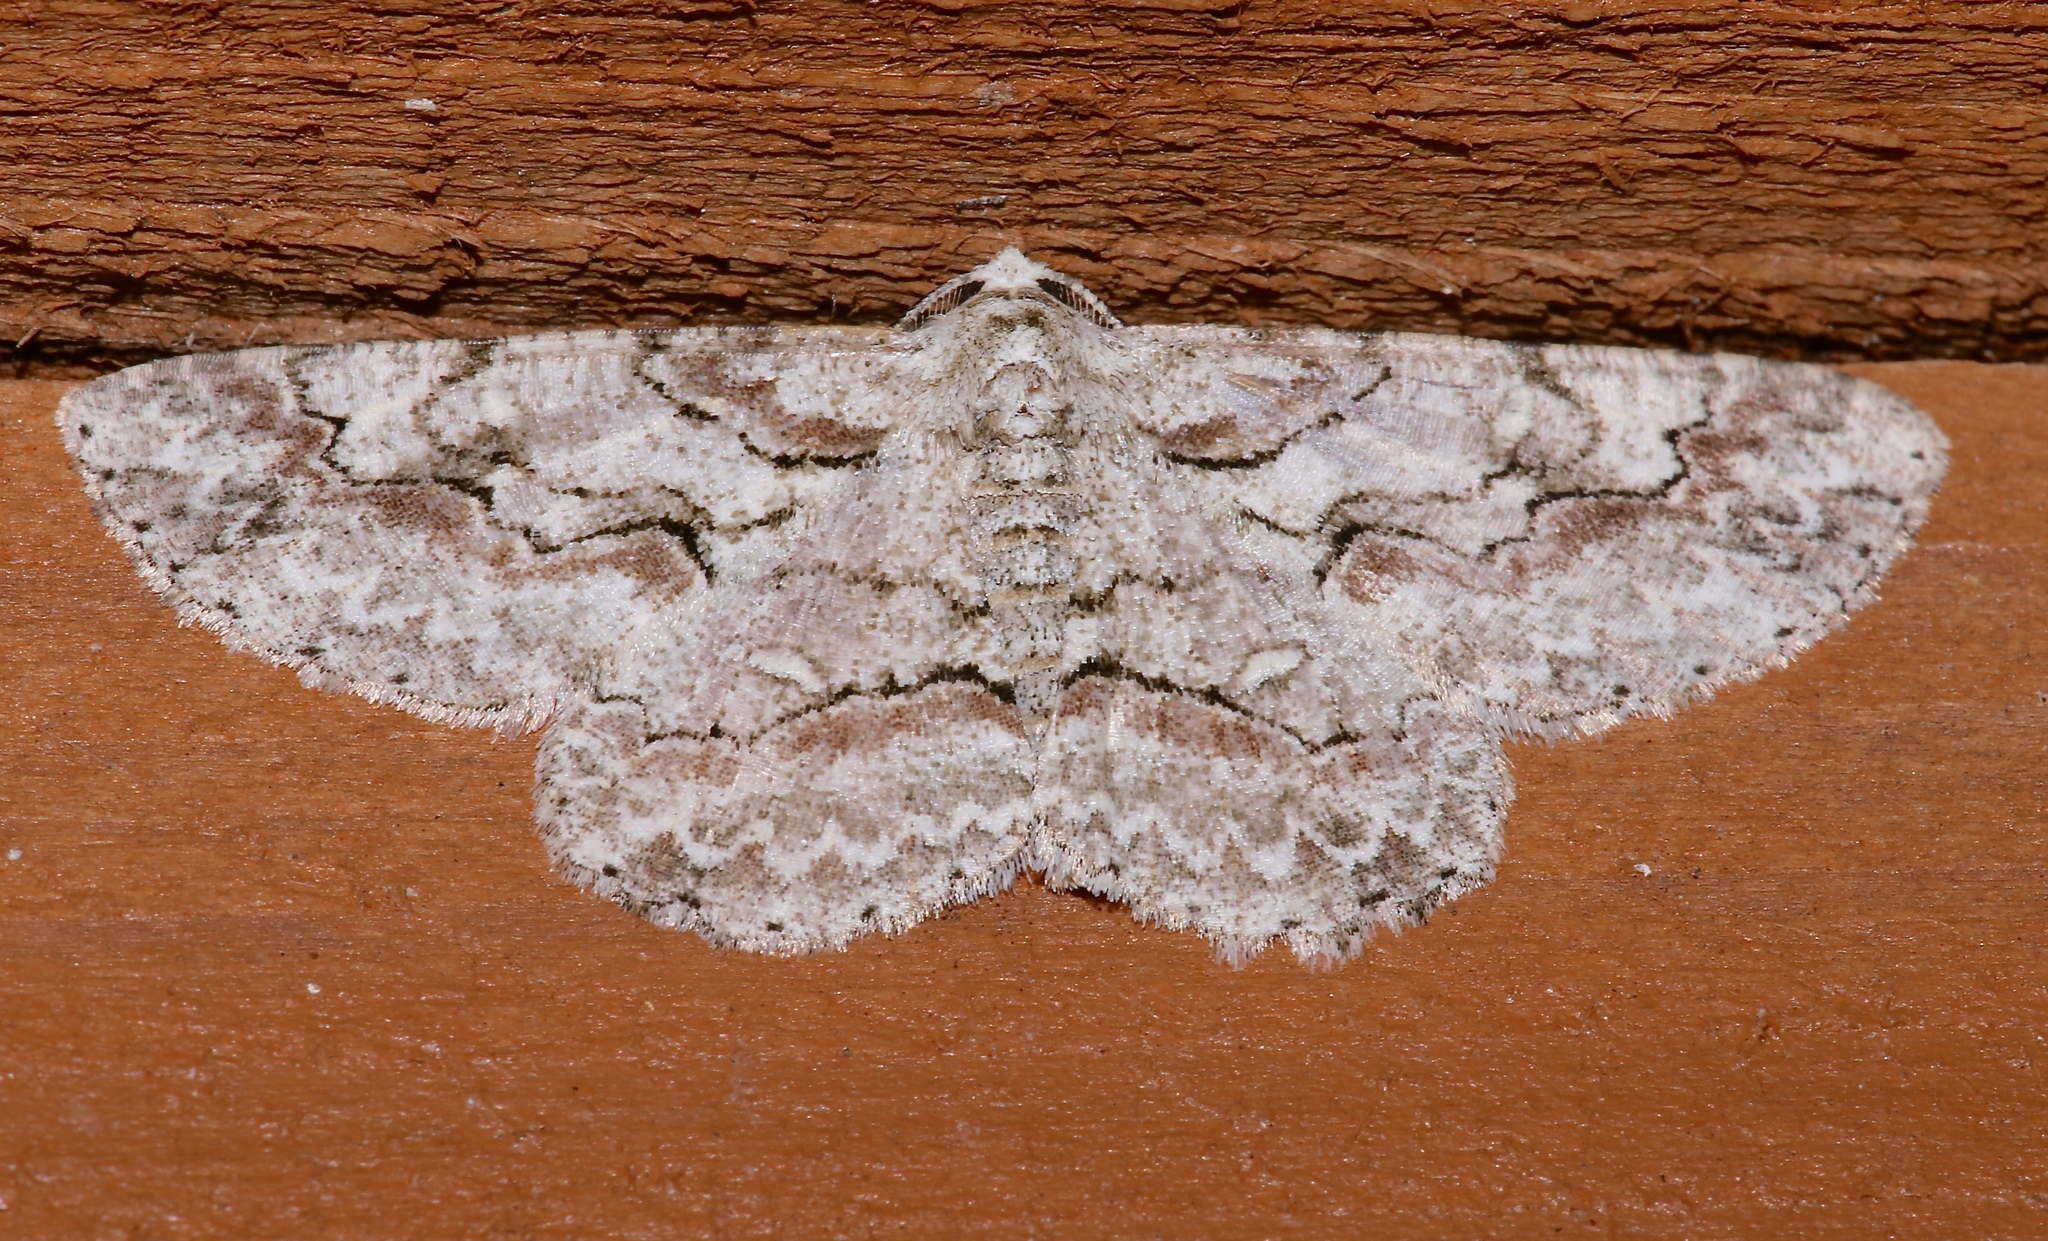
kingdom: Animalia
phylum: Arthropoda
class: Insecta
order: Lepidoptera
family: Geometridae
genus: Iridopsis
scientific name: Iridopsis defectaria
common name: Brown-shaded gray
